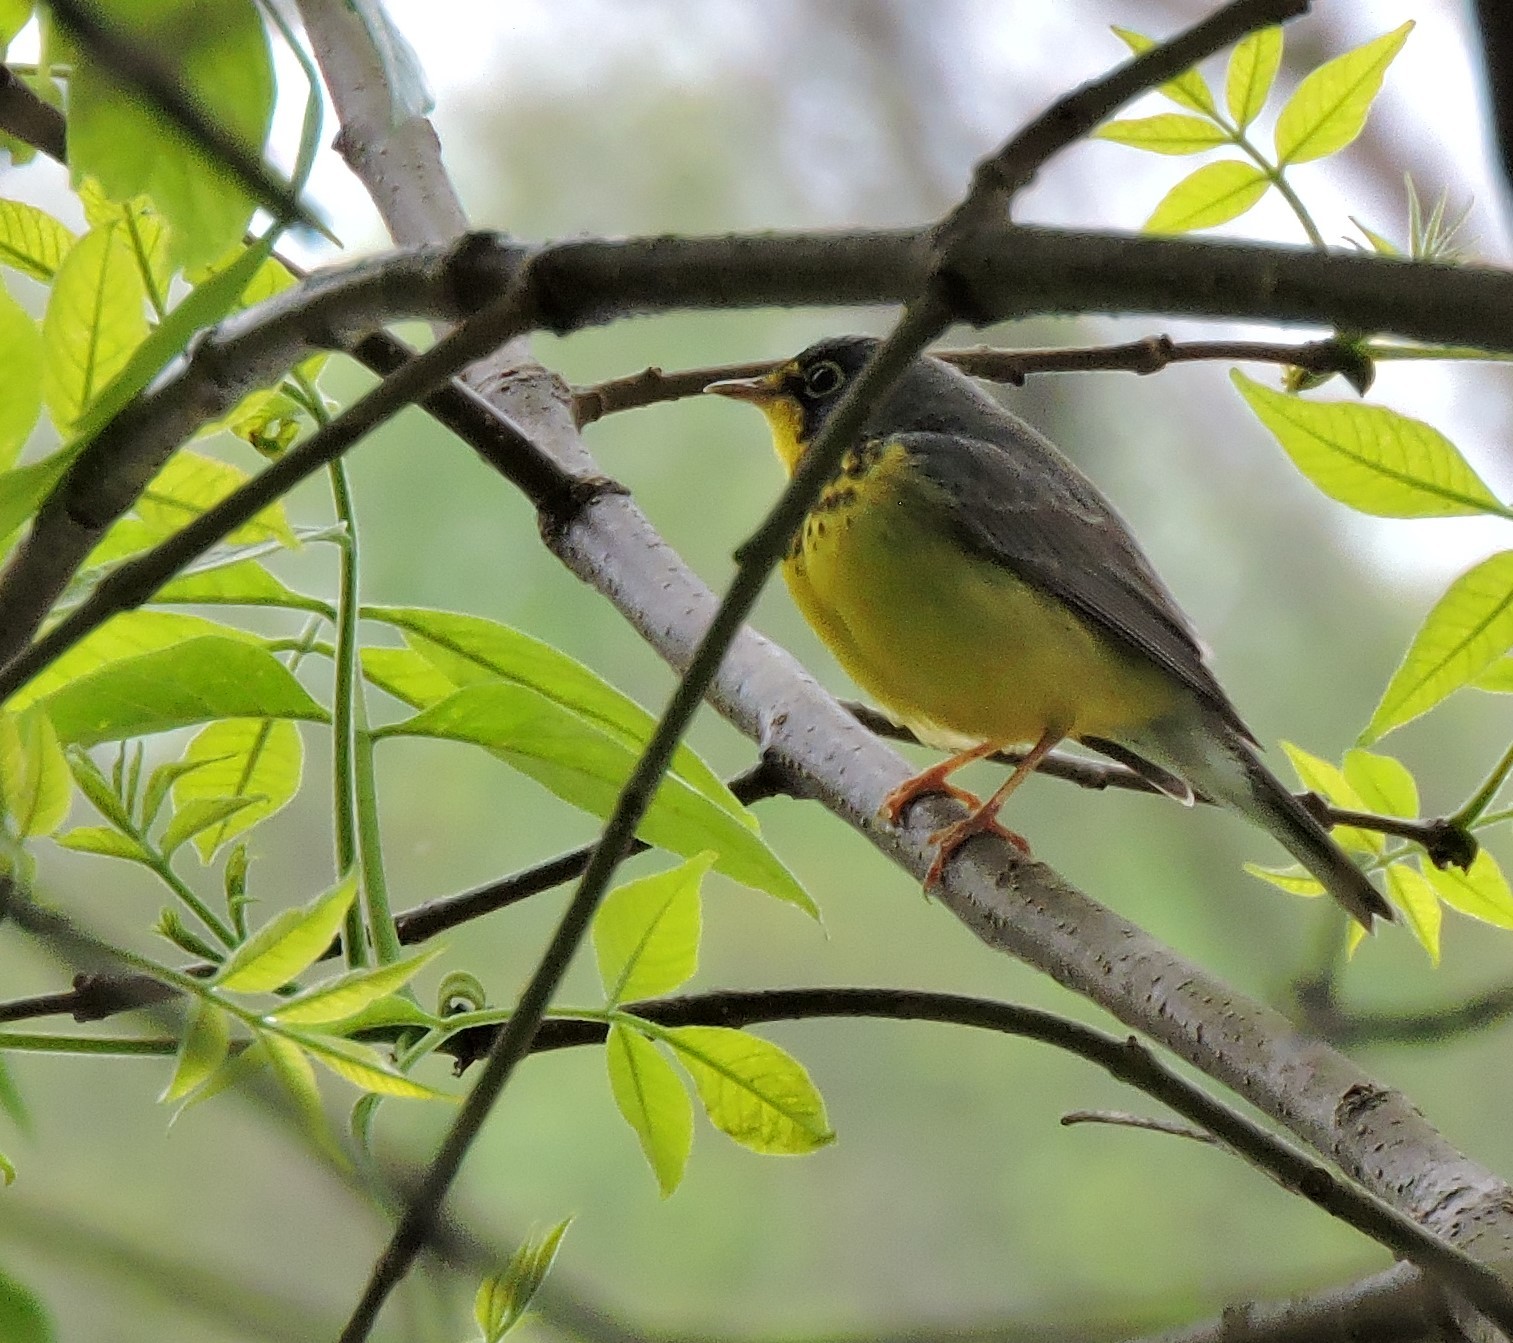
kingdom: Animalia
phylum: Chordata
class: Aves
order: Passeriformes
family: Parulidae
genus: Cardellina
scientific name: Cardellina canadensis
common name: Canada warbler
